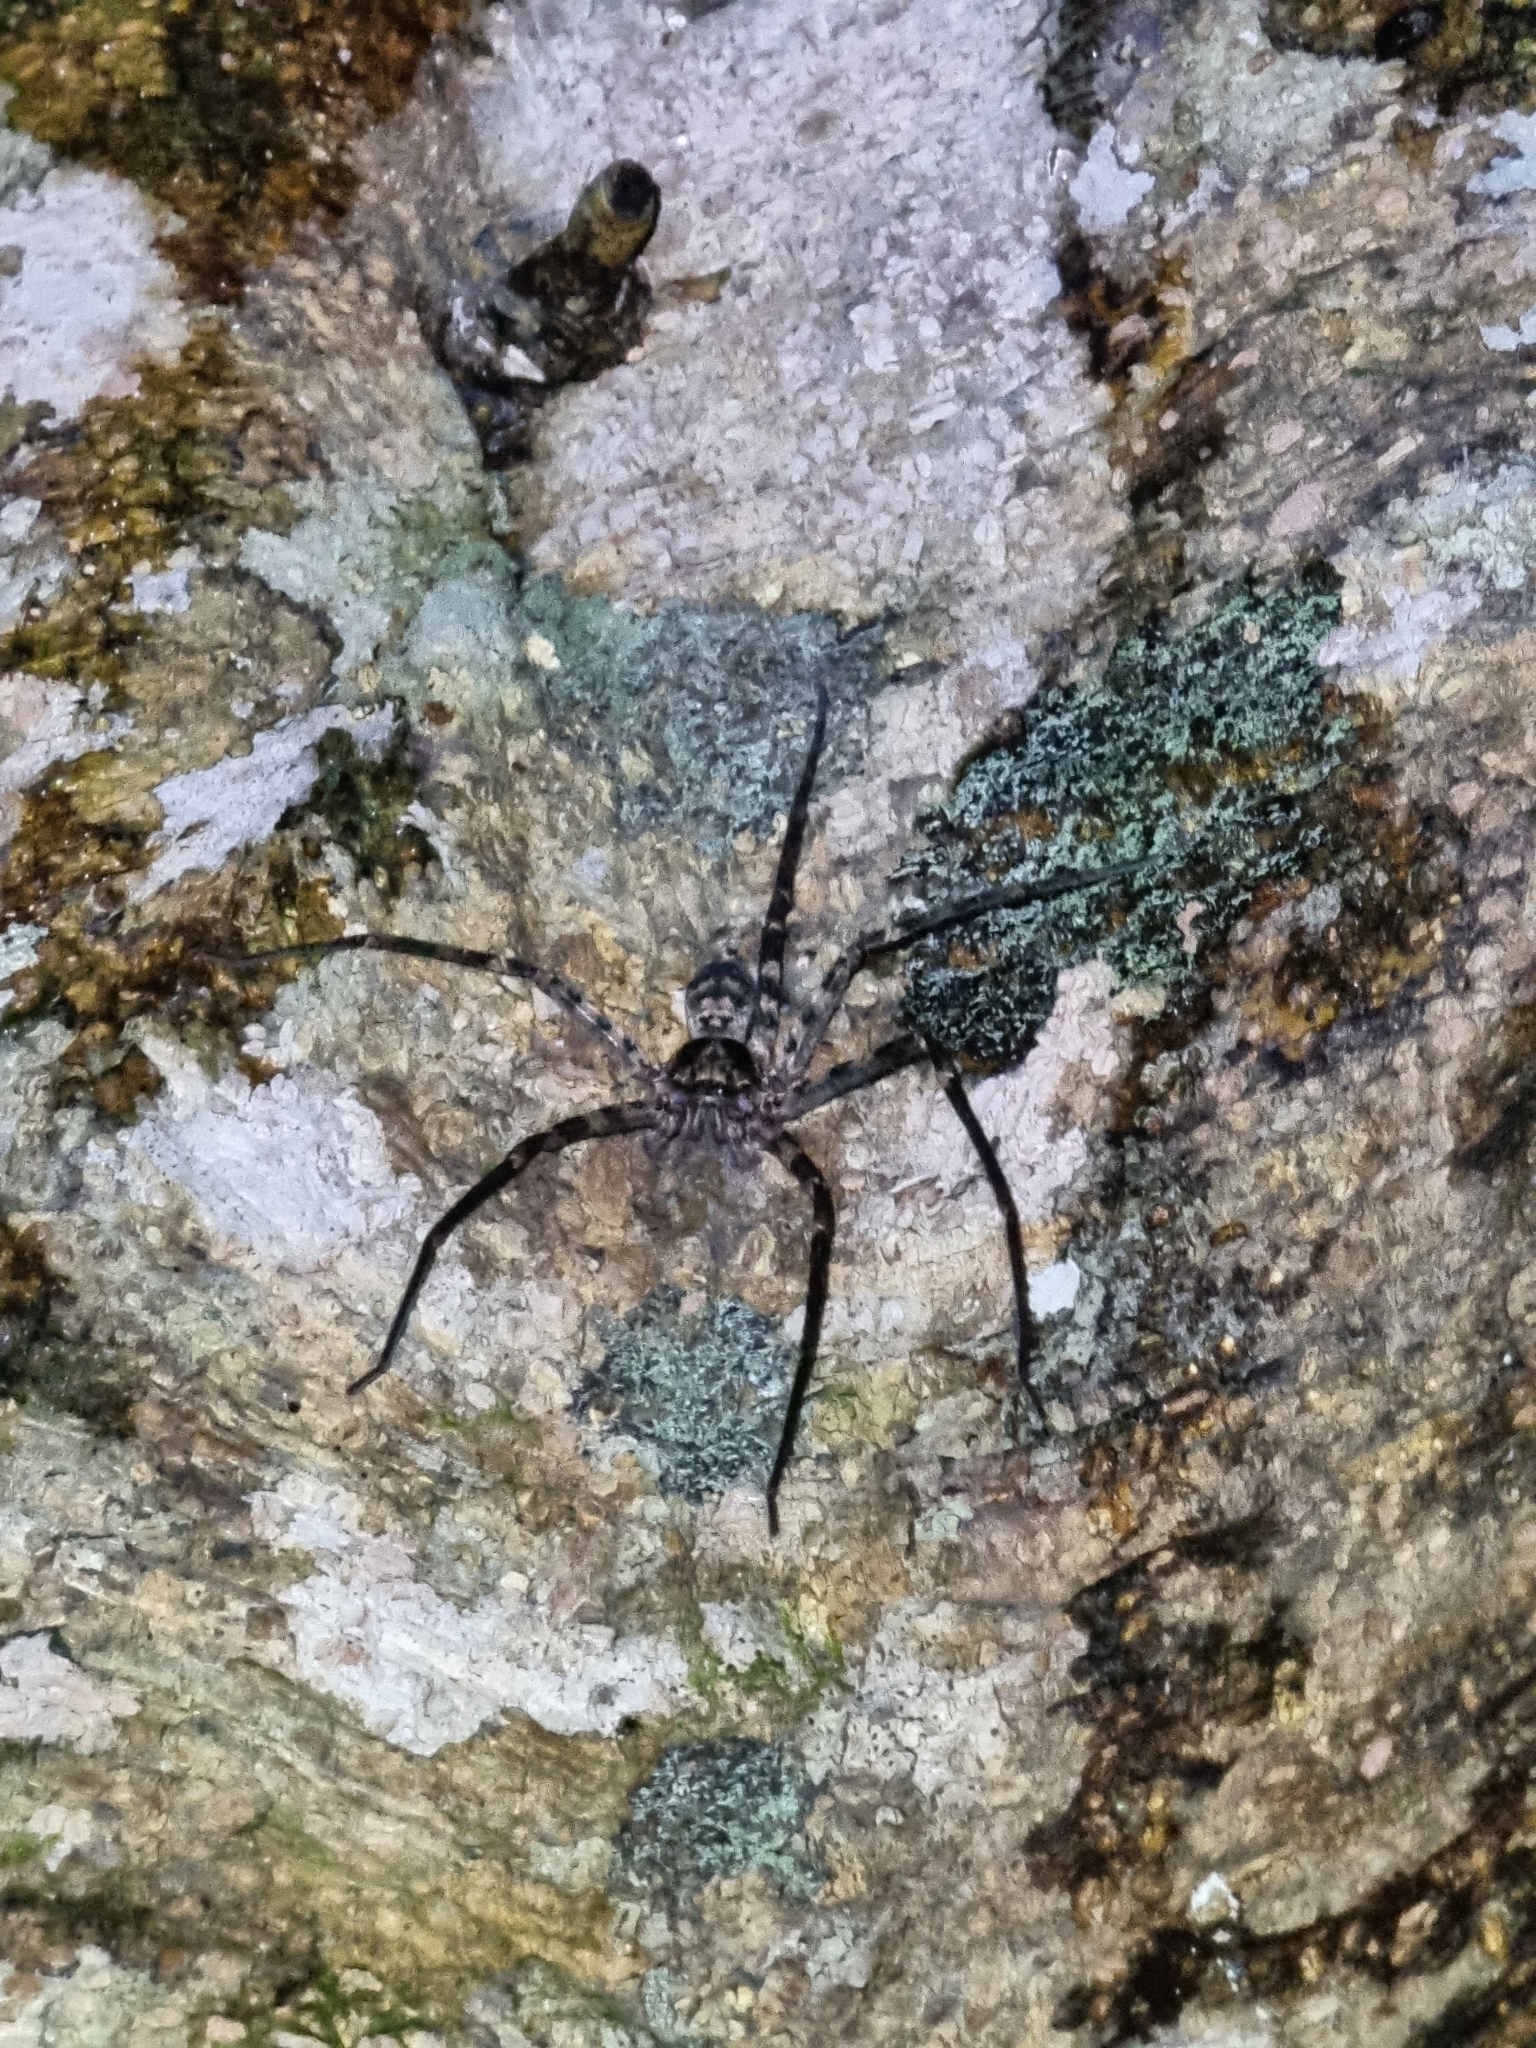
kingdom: Animalia
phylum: Arthropoda
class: Arachnida
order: Araneae
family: Sparassidae
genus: Heteropoda
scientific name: Heteropoda procera
